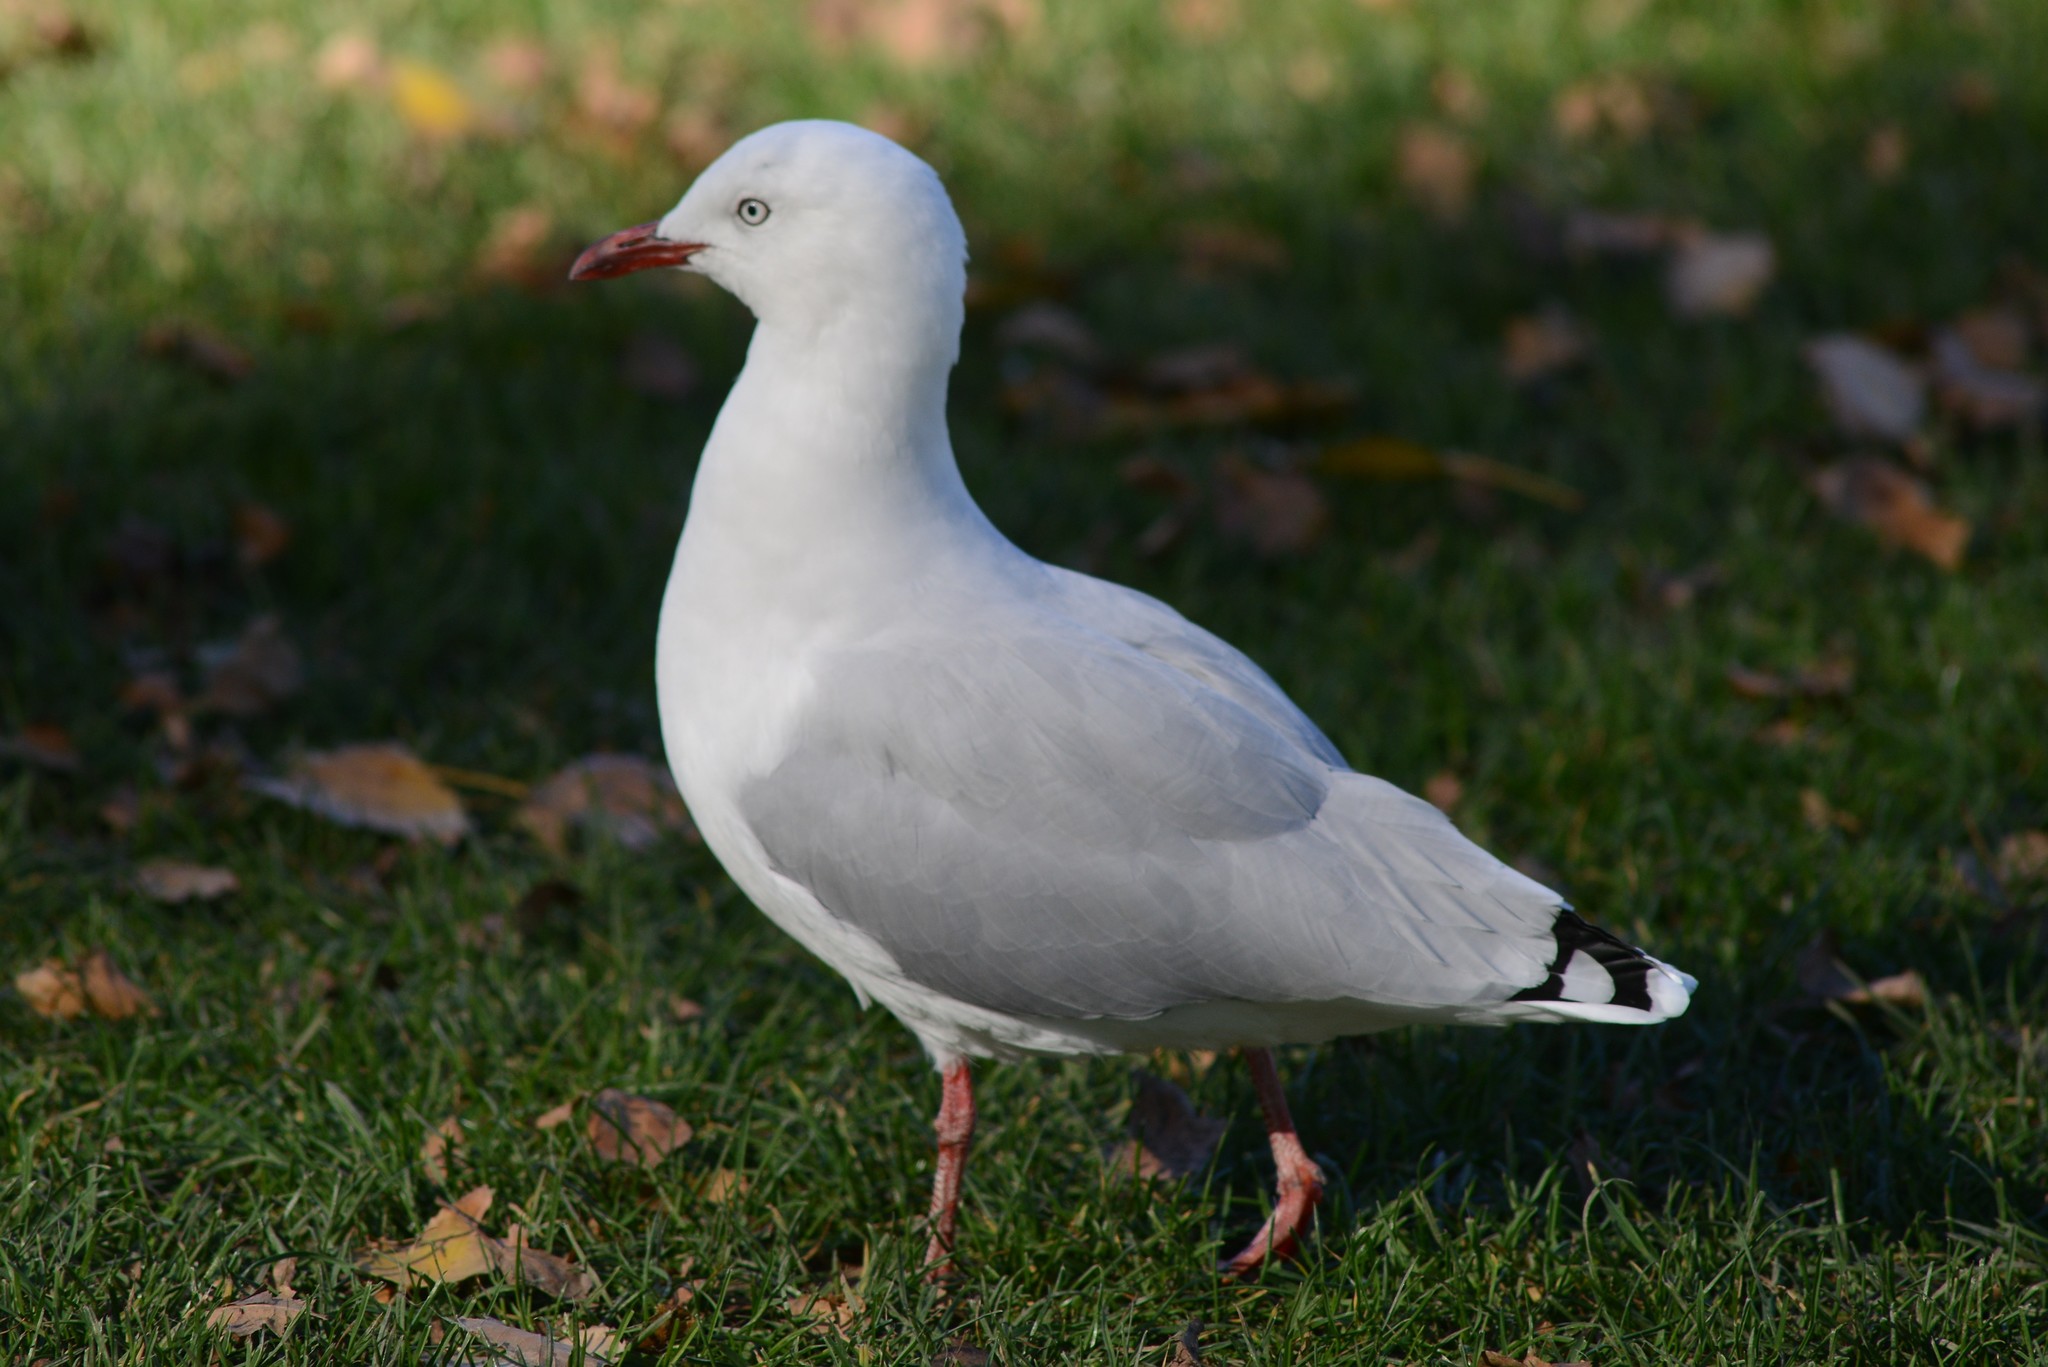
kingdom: Animalia
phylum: Chordata
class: Aves
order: Charadriiformes
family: Laridae
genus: Chroicocephalus
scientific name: Chroicocephalus novaehollandiae
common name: Silver gull
